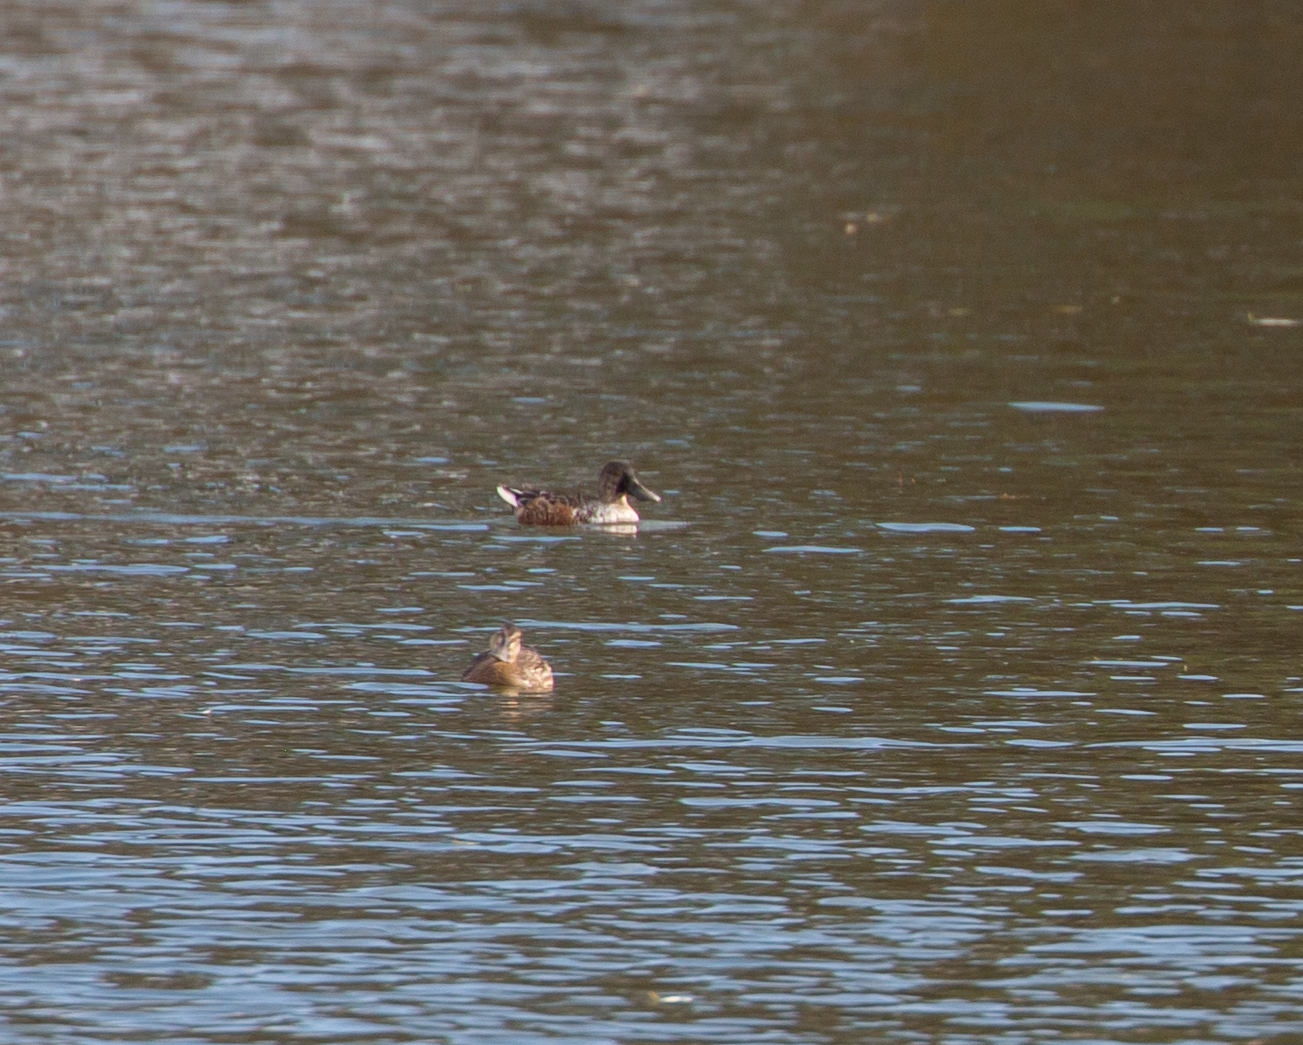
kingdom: Animalia
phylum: Chordata
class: Aves
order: Anseriformes
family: Anatidae
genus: Spatula
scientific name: Spatula clypeata
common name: Northern shoveler
